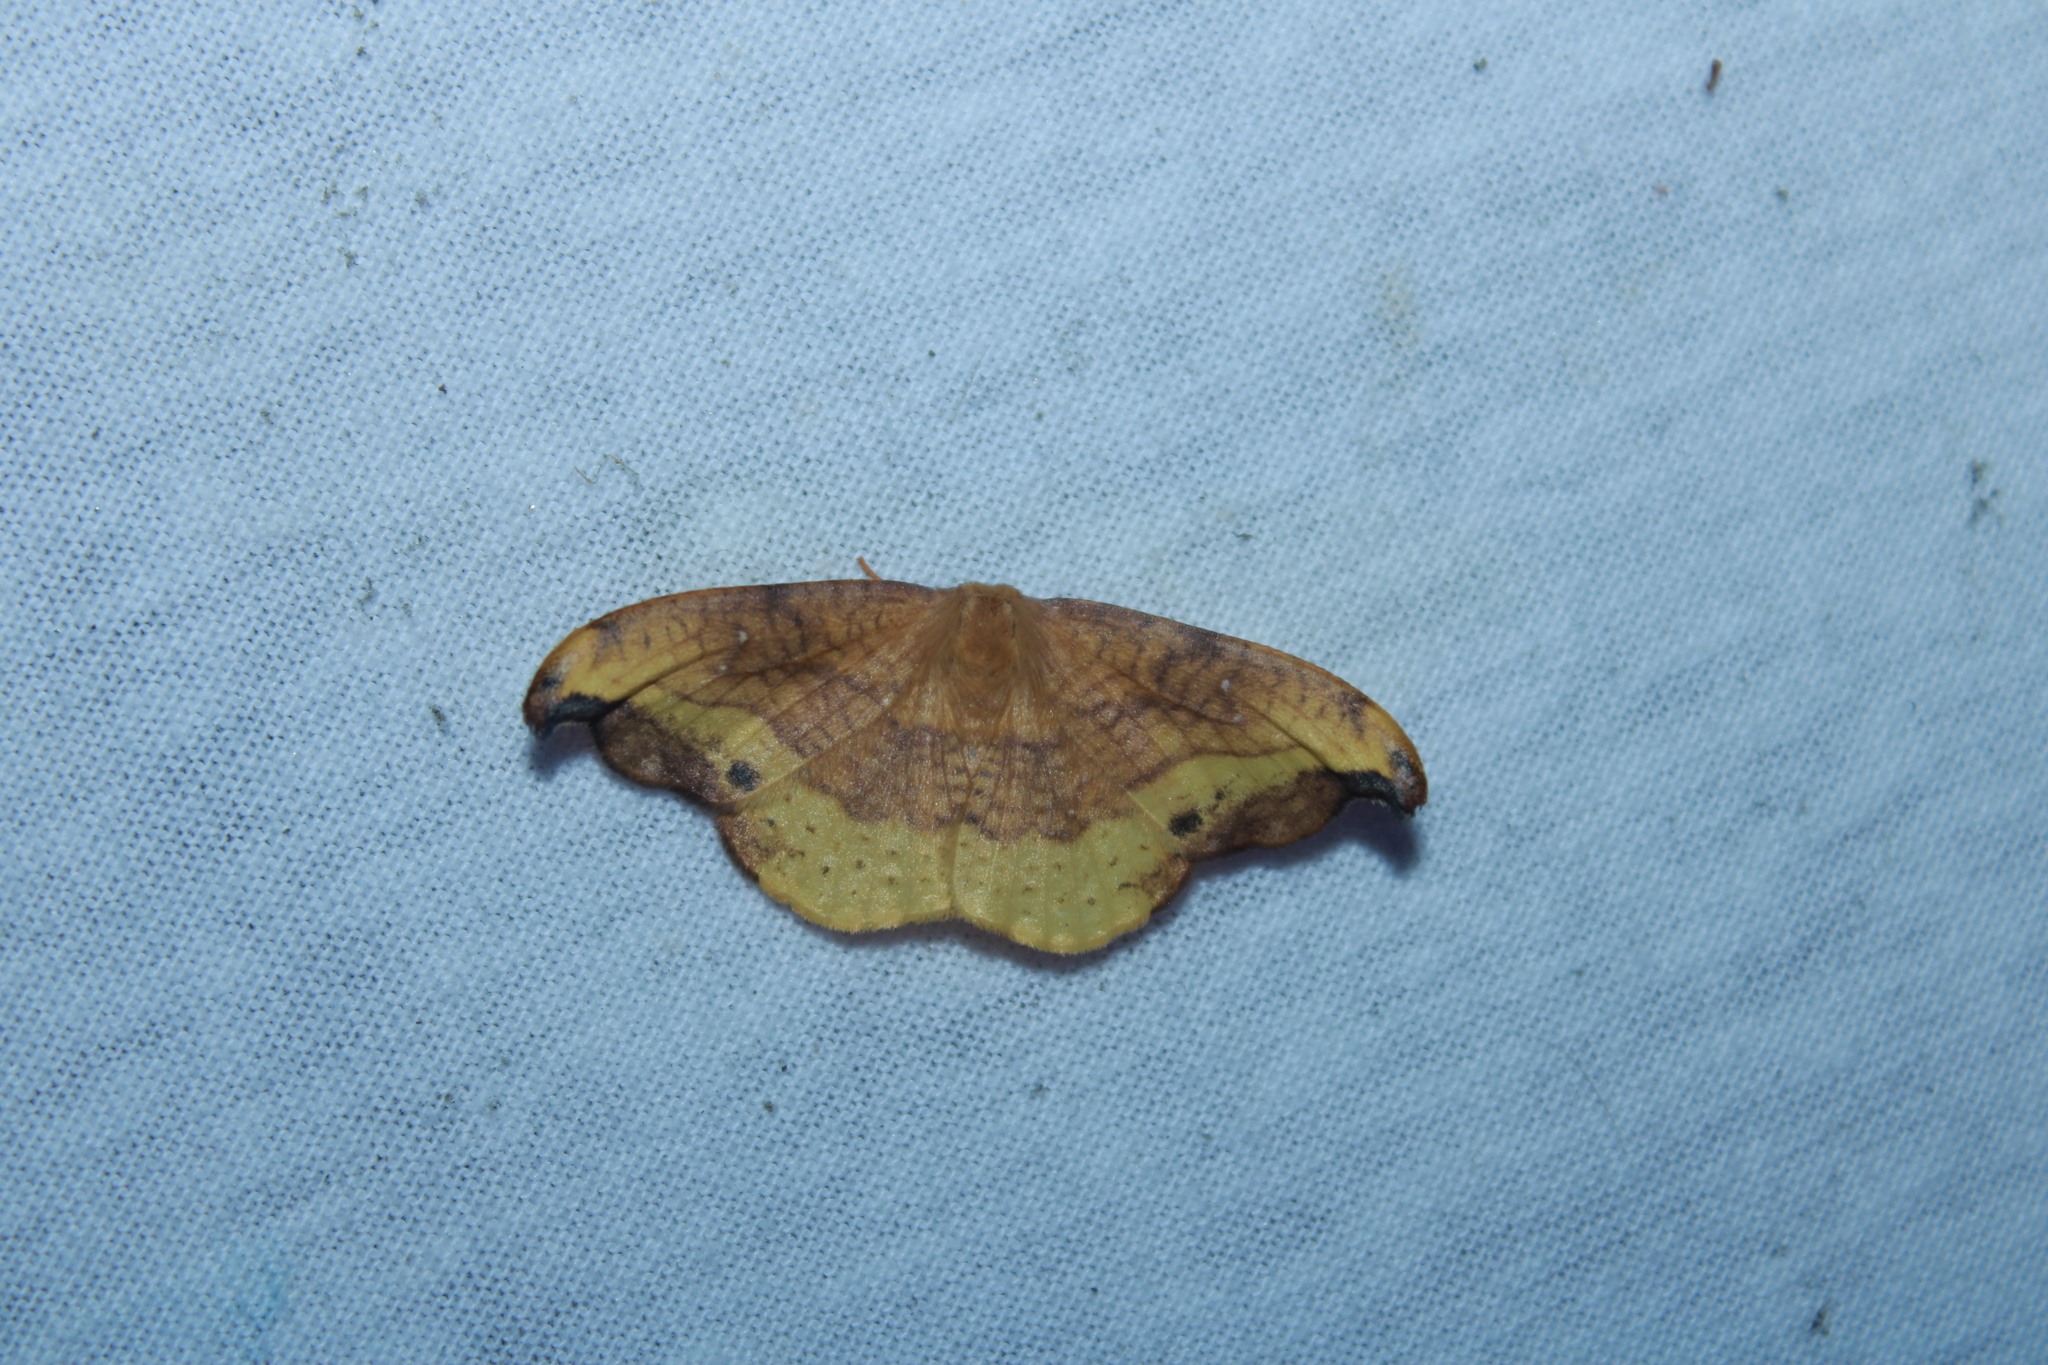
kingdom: Animalia
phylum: Arthropoda
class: Insecta
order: Lepidoptera
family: Drepanidae
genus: Oreta
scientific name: Oreta rosea
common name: Rose hooktip
